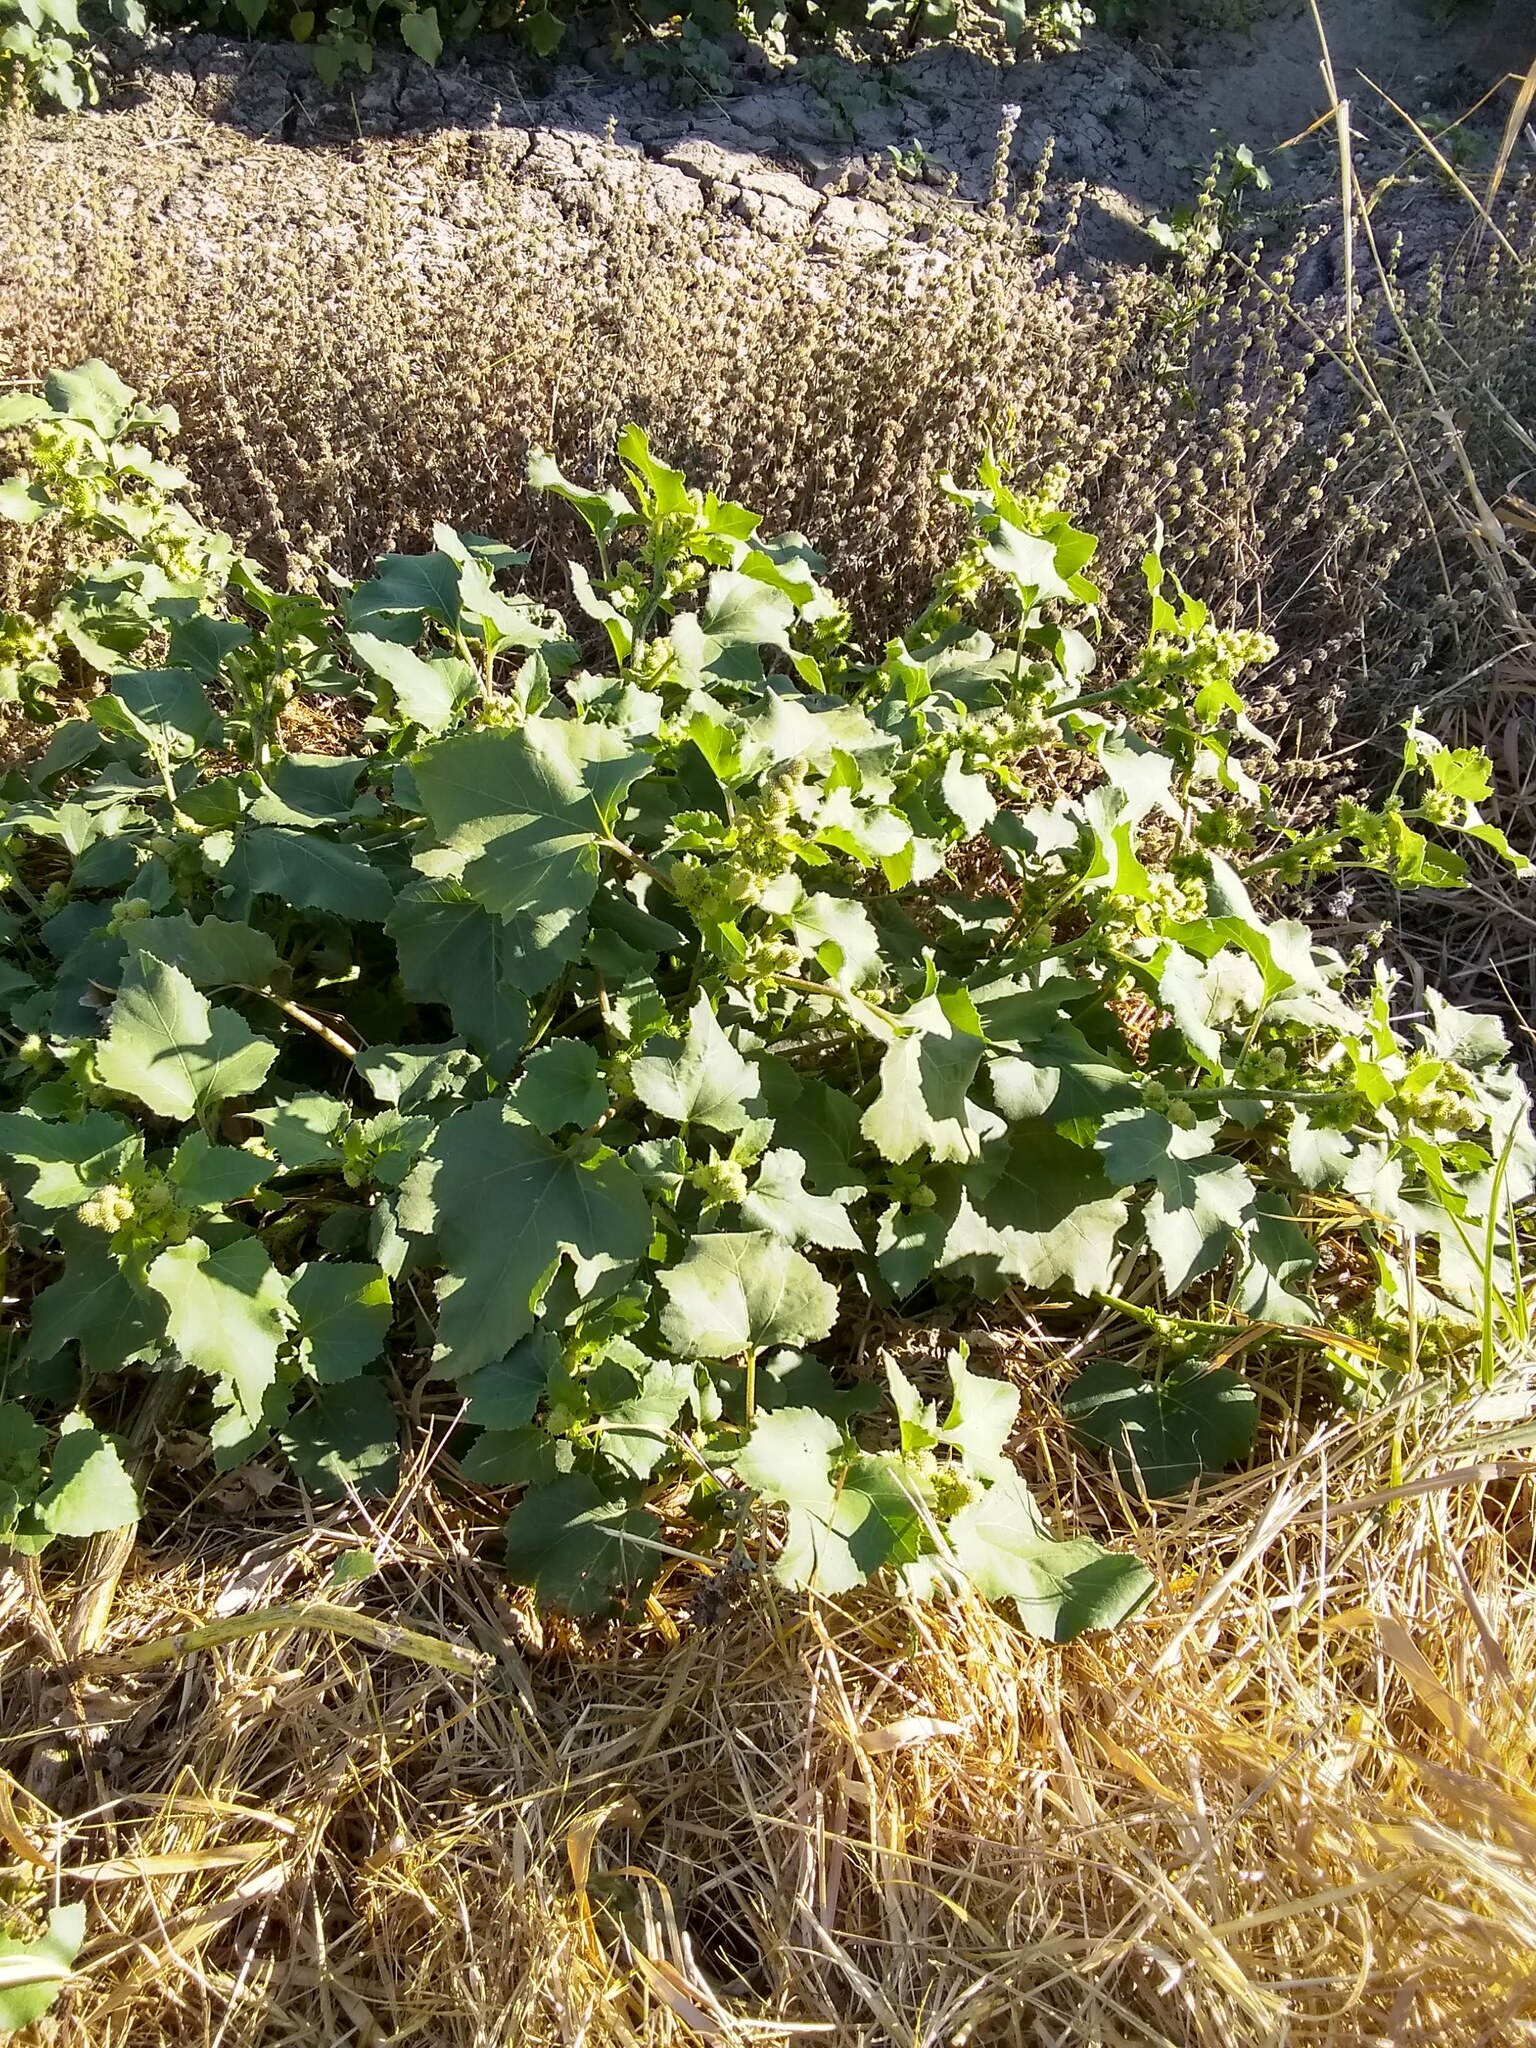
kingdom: Plantae
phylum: Tracheophyta
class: Magnoliopsida
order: Asterales
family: Asteraceae
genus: Xanthium
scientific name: Xanthium strumarium
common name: Rough cocklebur
